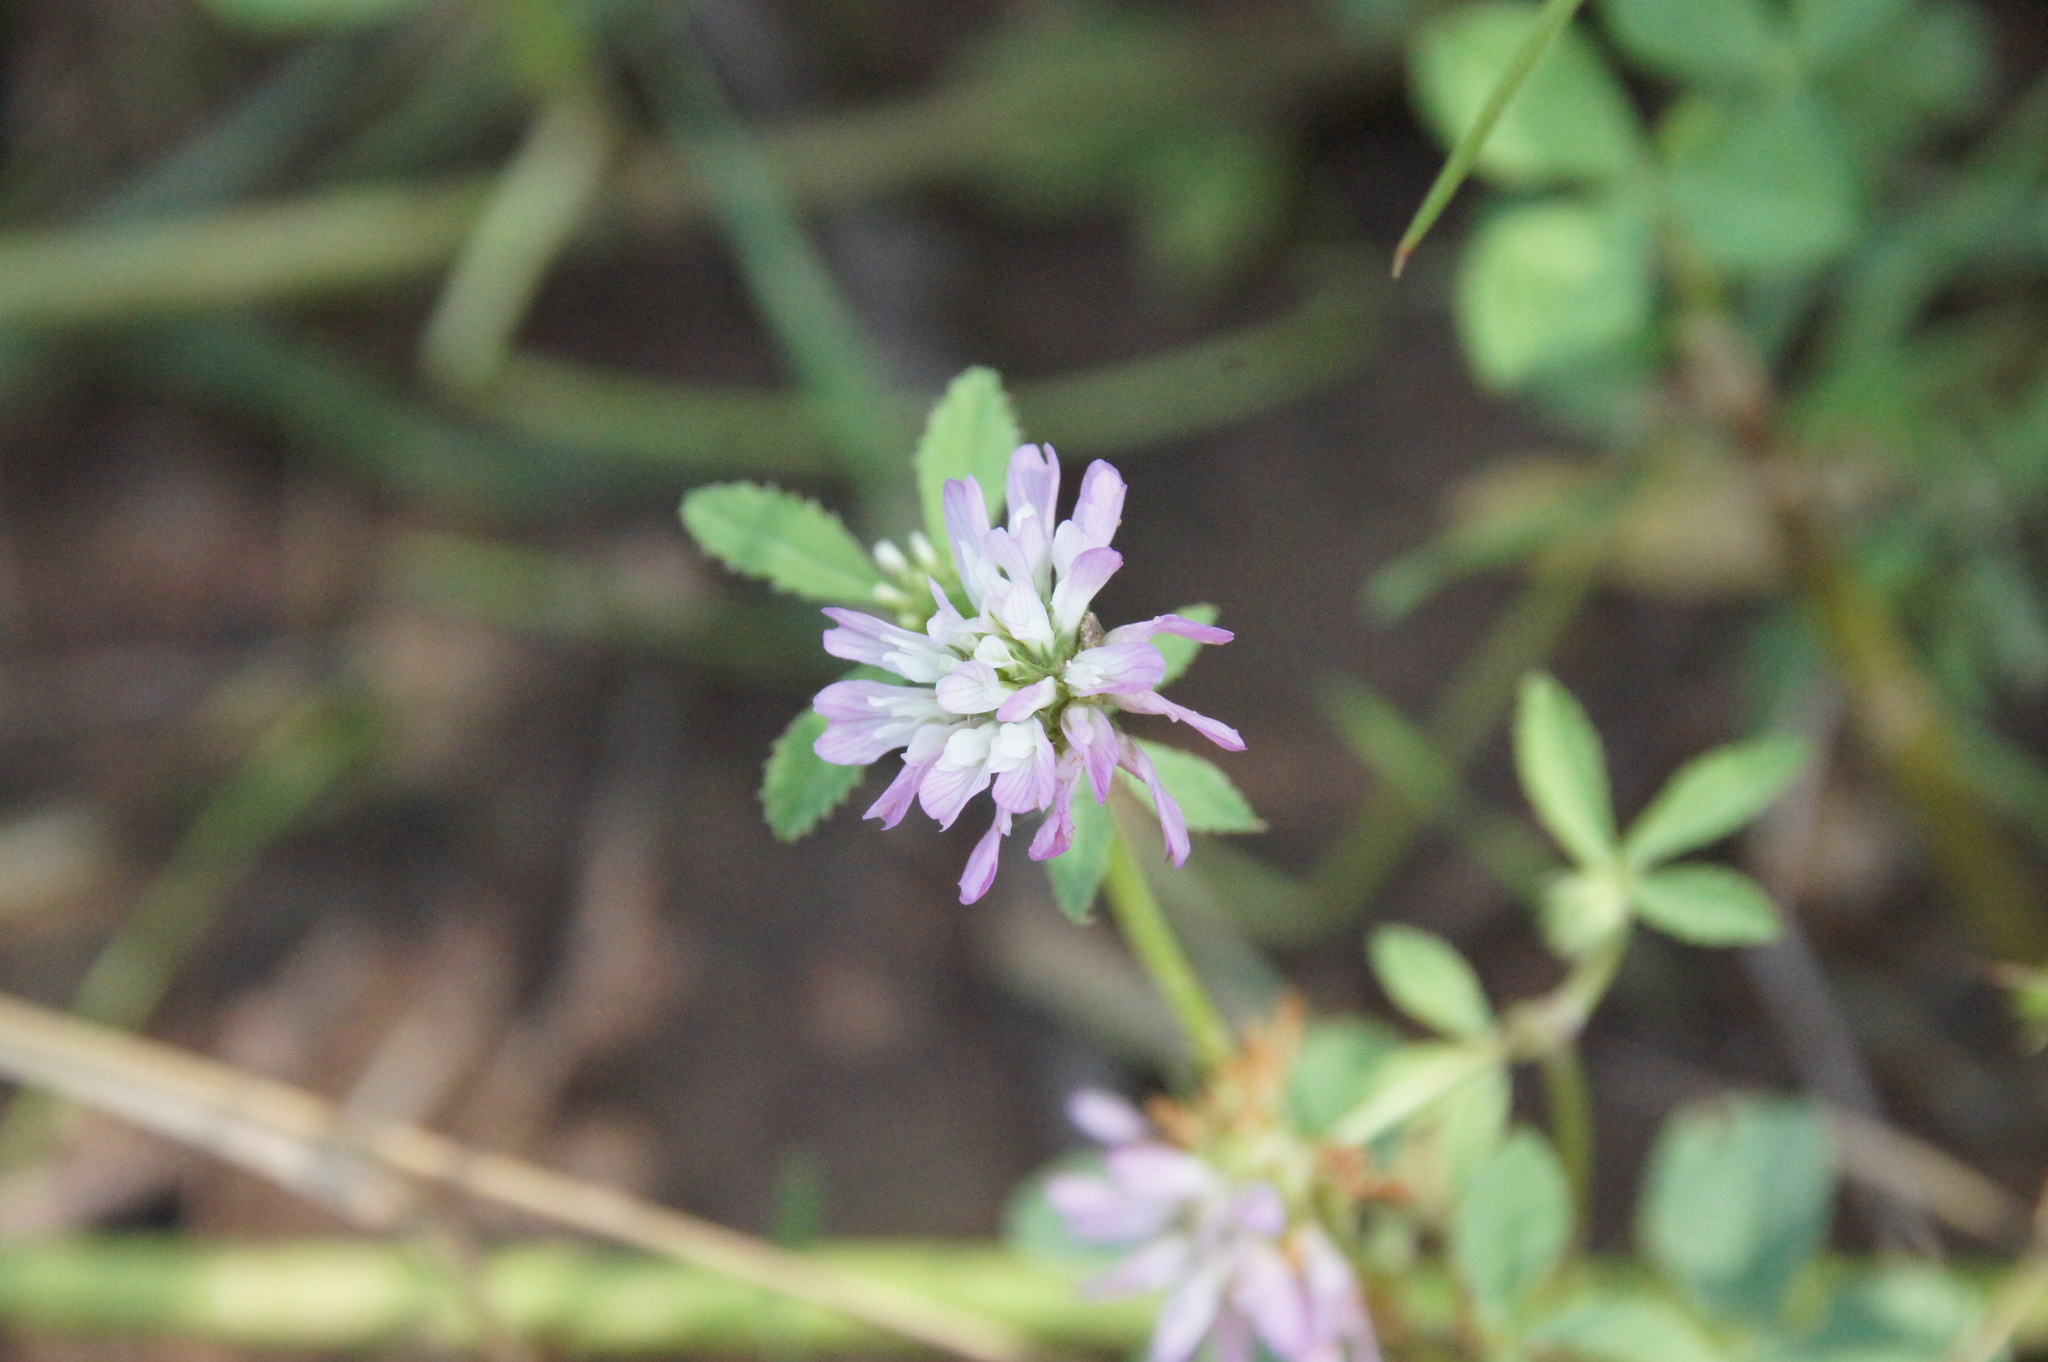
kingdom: Plantae
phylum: Tracheophyta
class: Magnoliopsida
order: Fabales
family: Fabaceae
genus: Trifolium
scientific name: Trifolium resupinatum
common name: Reversed clover
